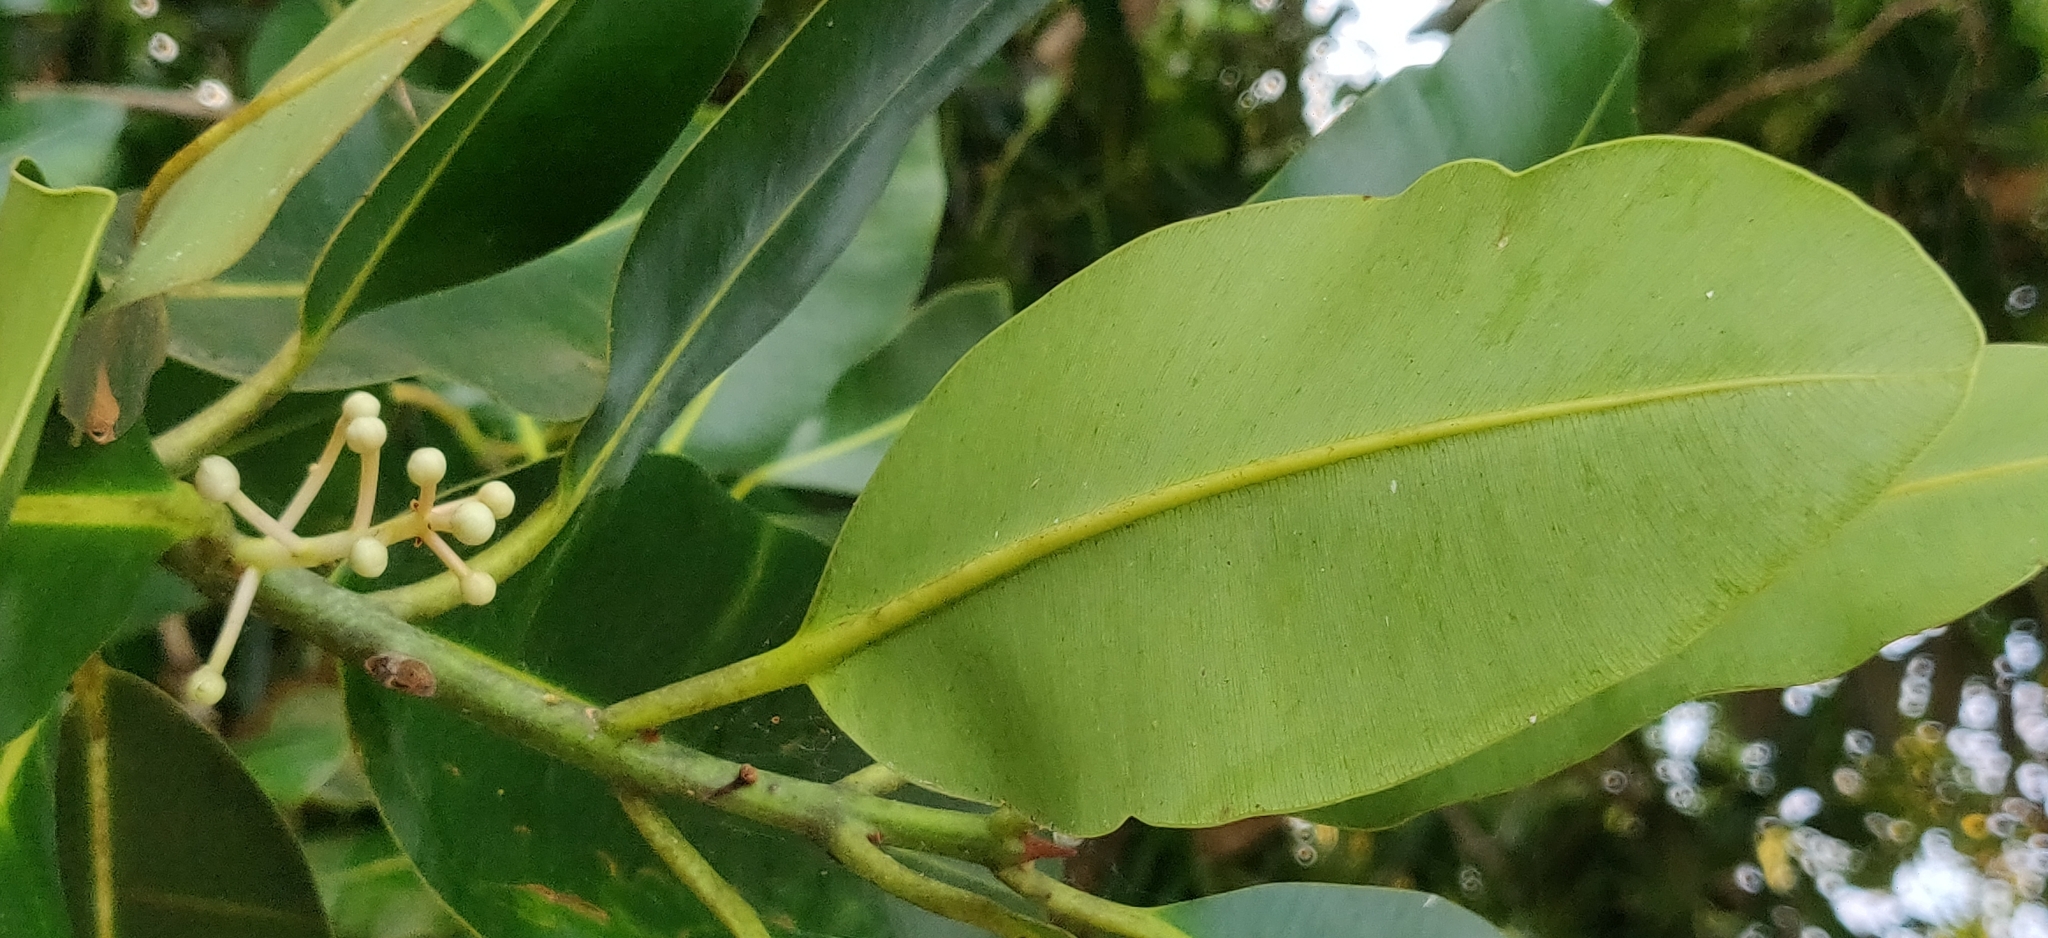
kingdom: Plantae
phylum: Tracheophyta
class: Magnoliopsida
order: Malpighiales
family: Calophyllaceae
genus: Calophyllum
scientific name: Calophyllum inophyllum
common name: Alexandrian laurel
